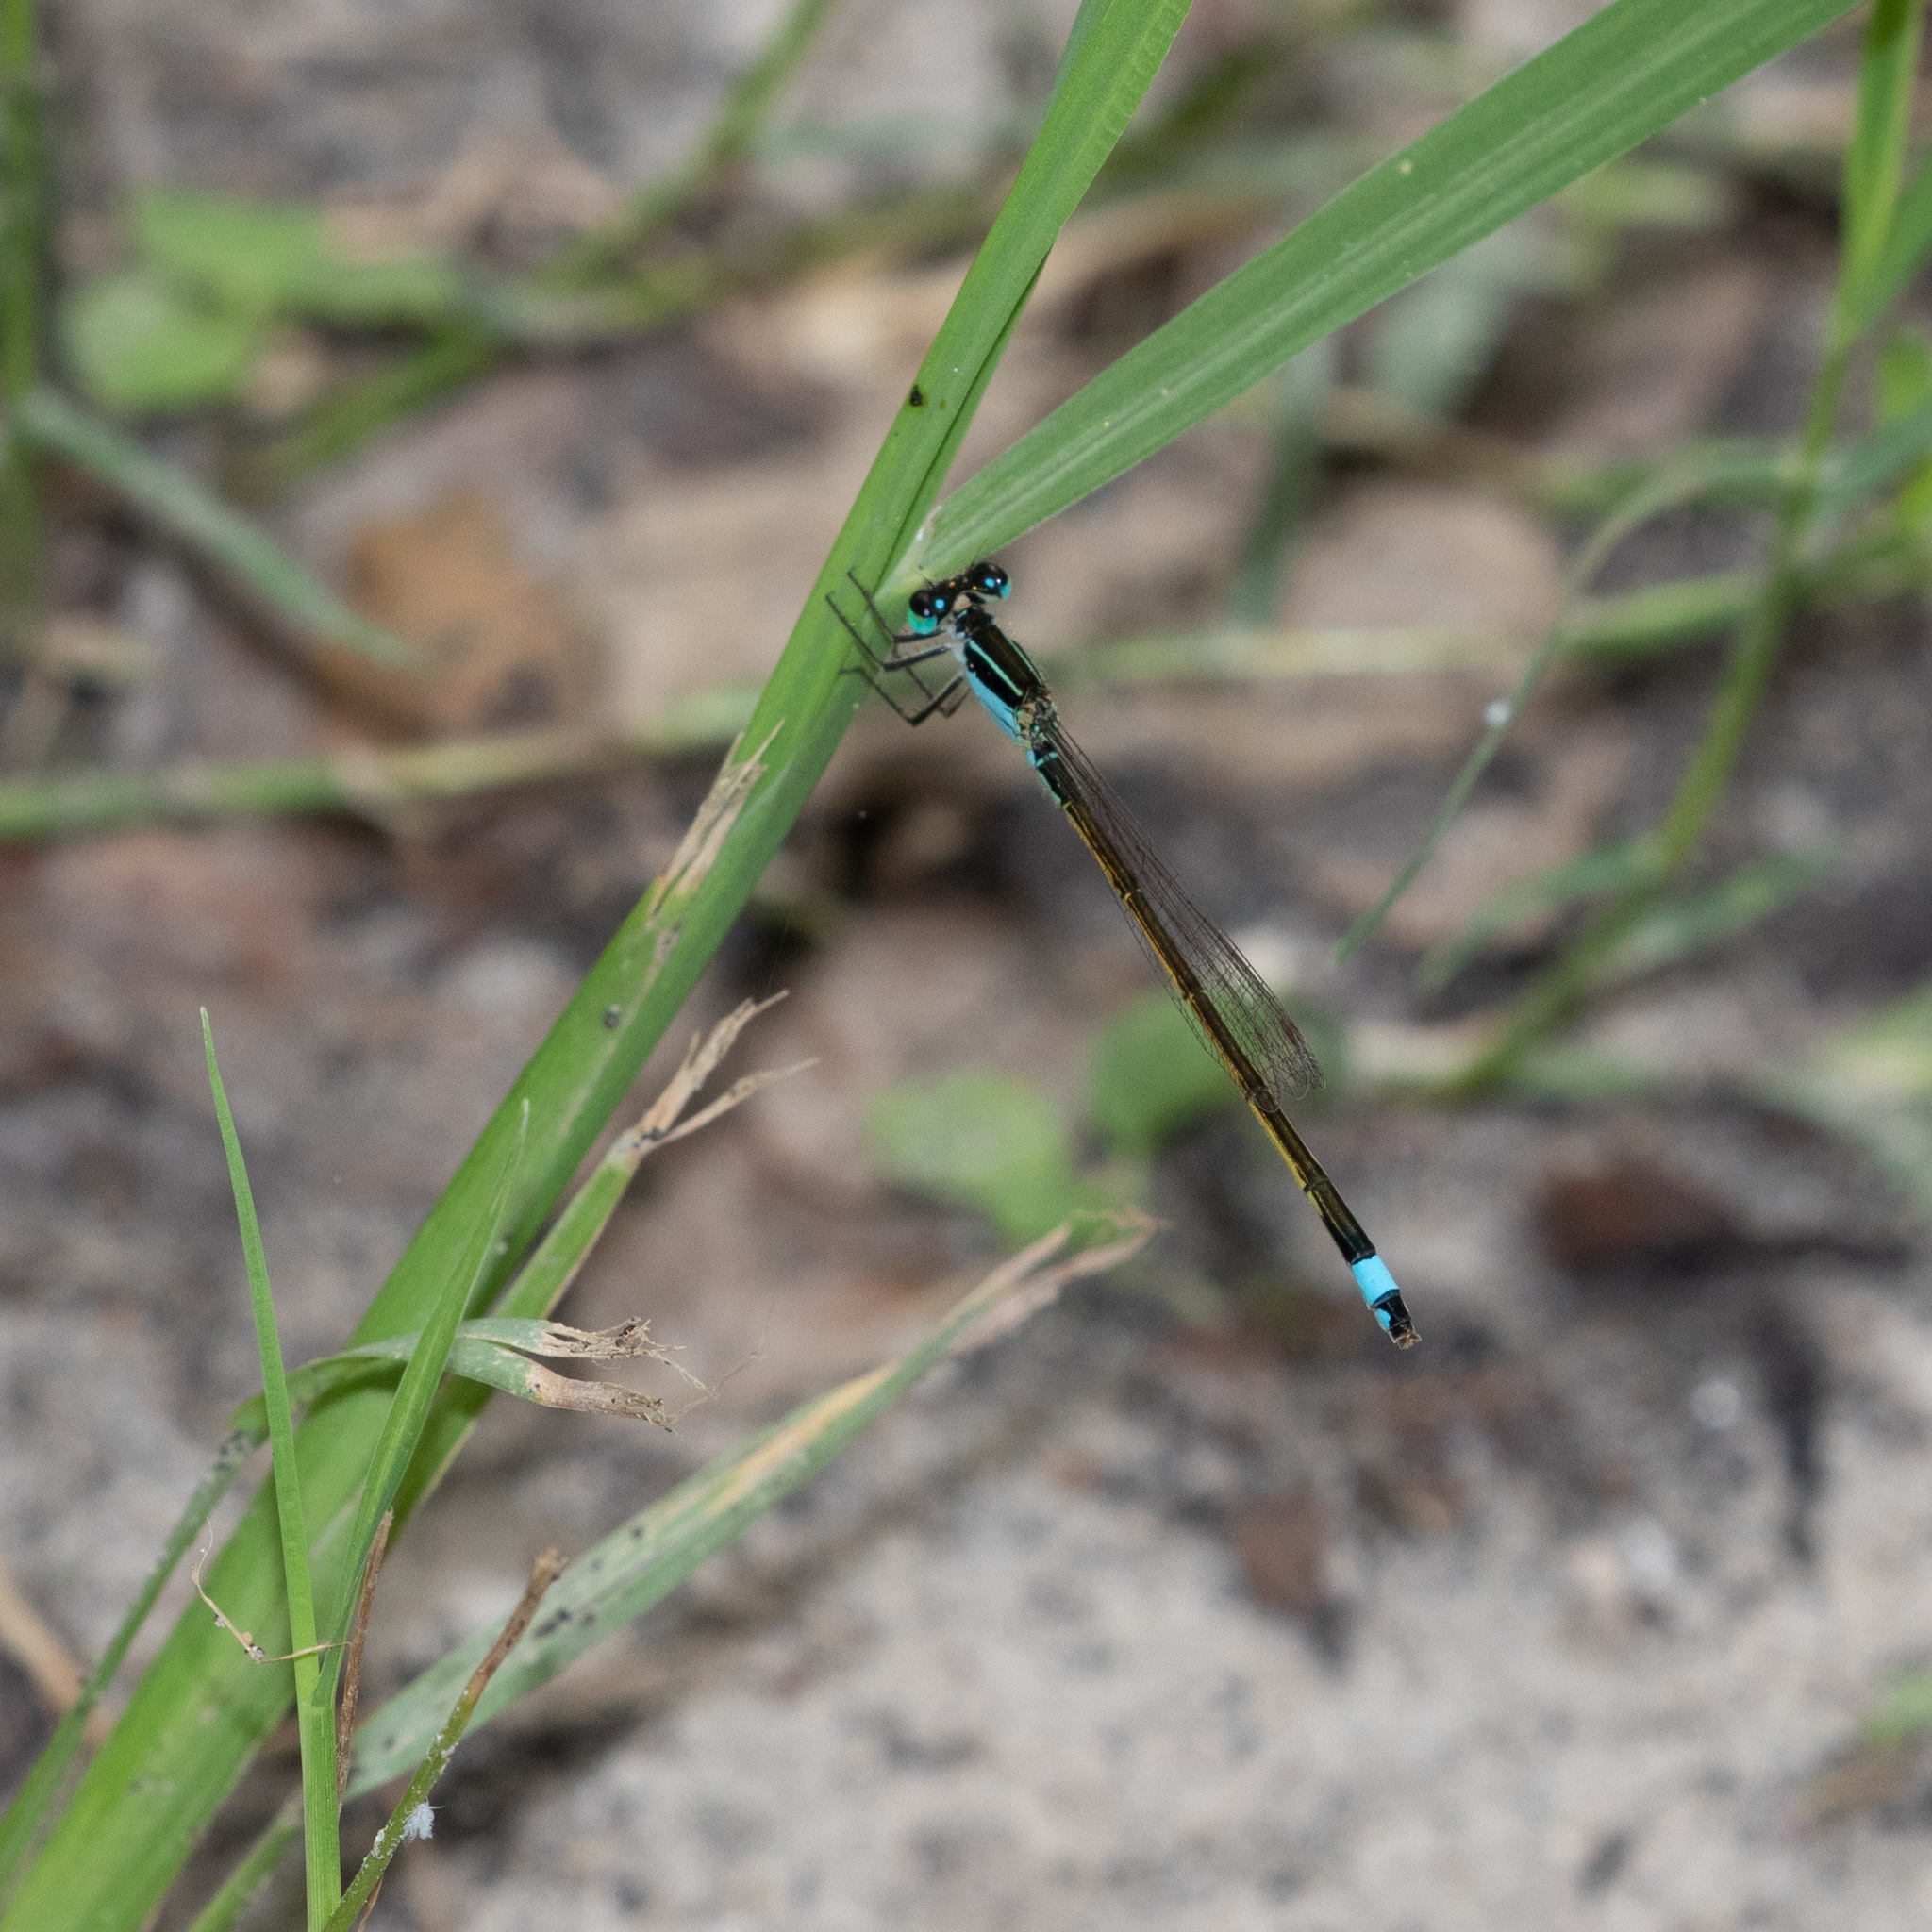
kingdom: Animalia
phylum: Arthropoda
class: Insecta
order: Odonata
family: Coenagrionidae
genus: Ischnura
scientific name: Ischnura ramburii
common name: Rambur's forktail
